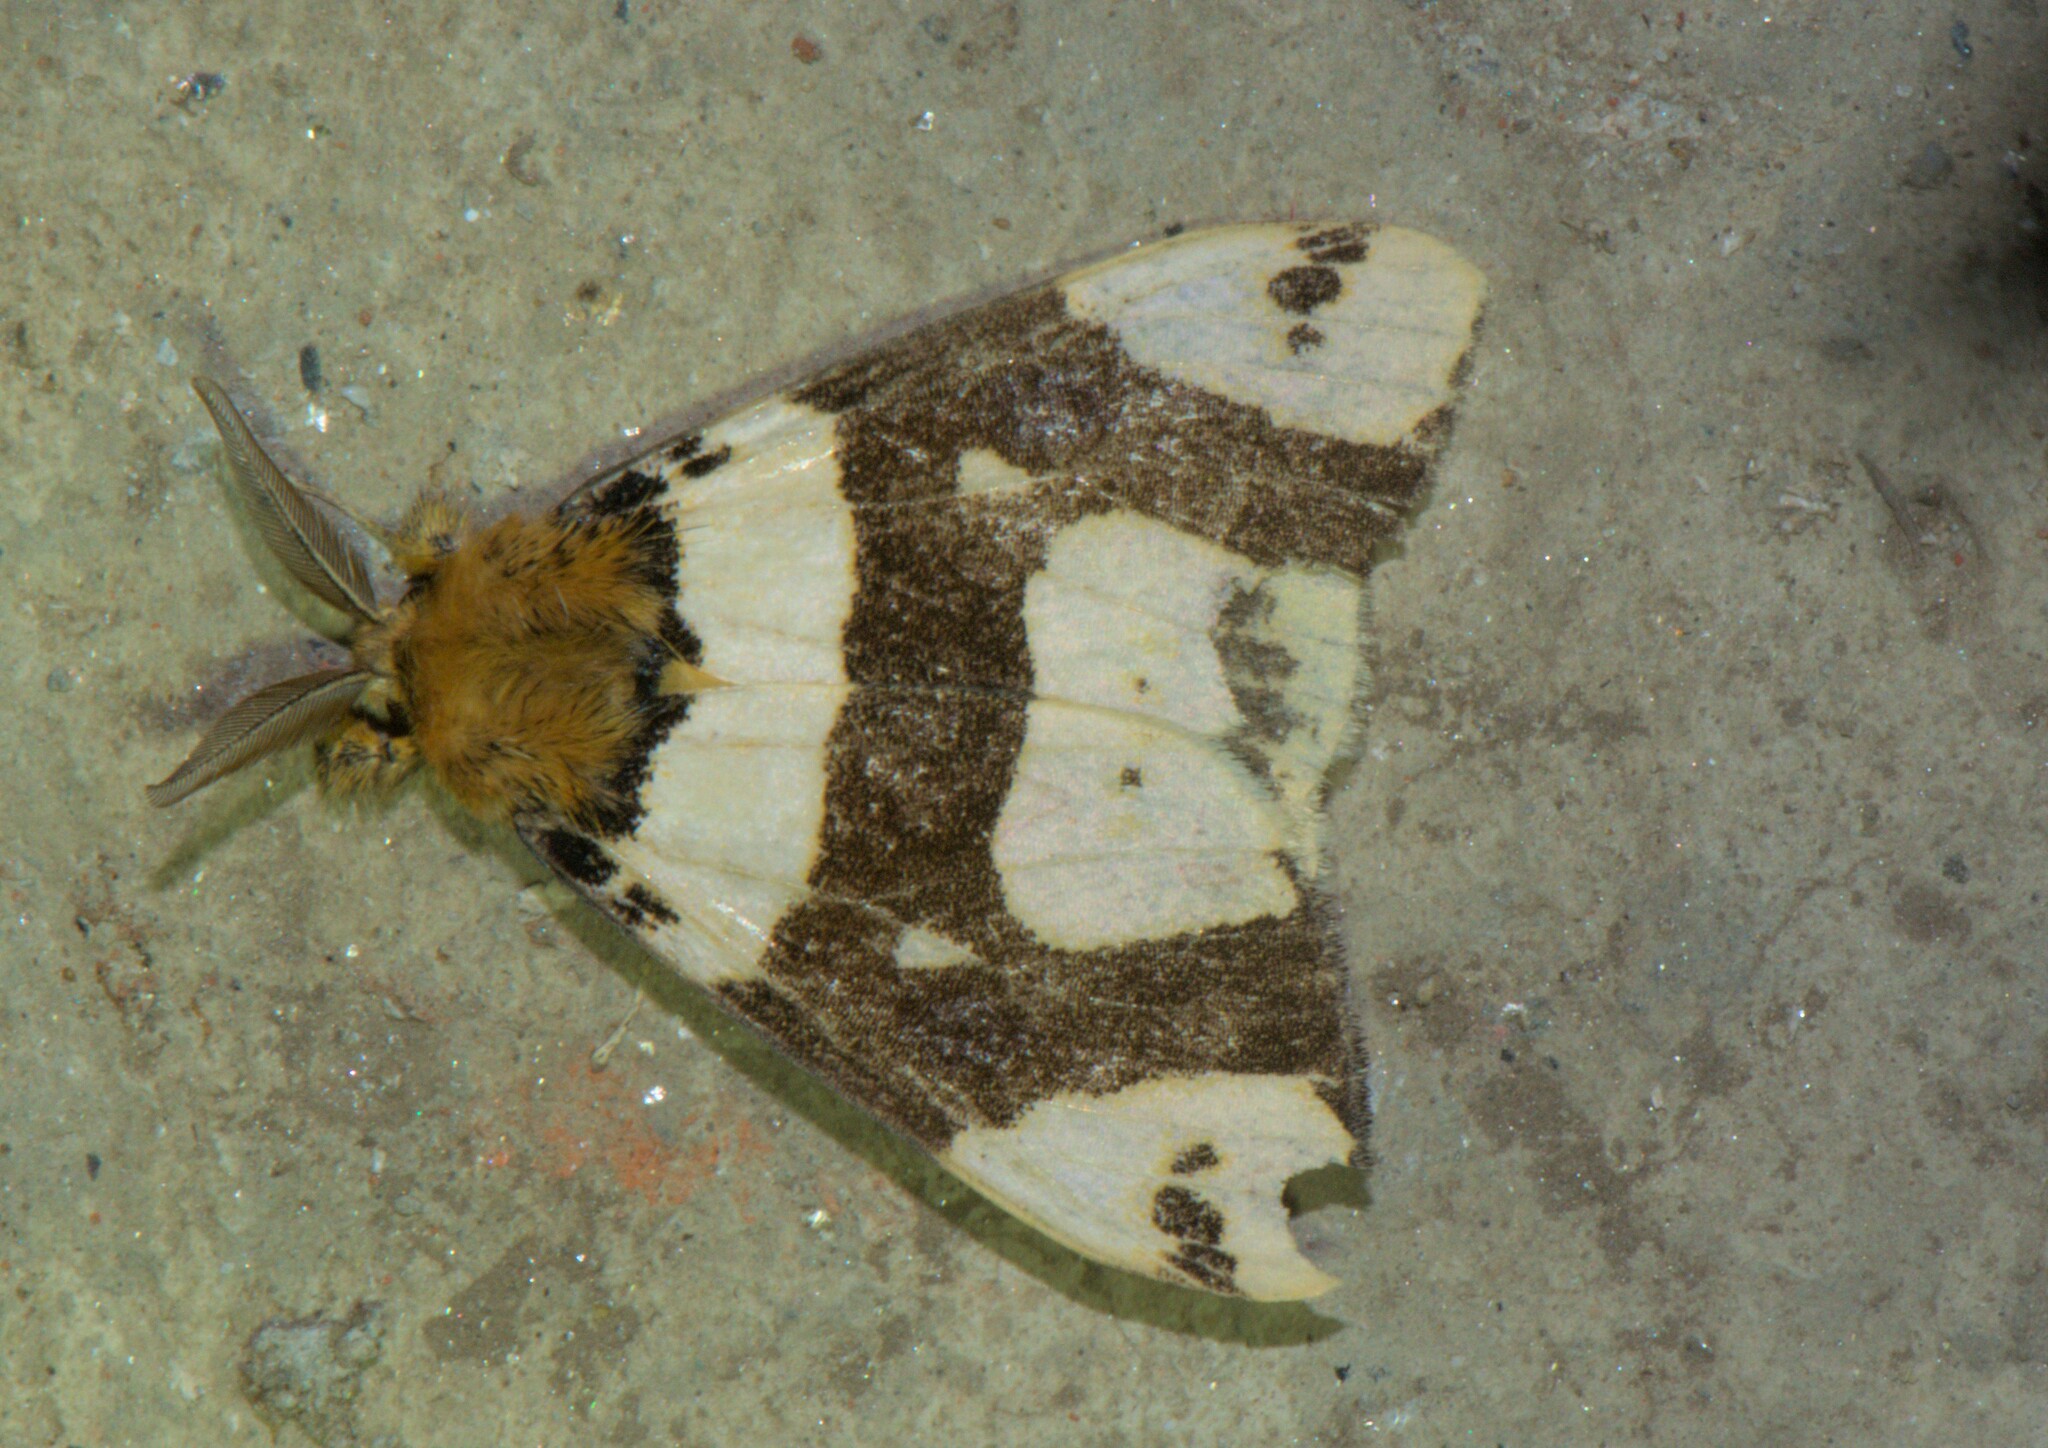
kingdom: Animalia
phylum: Arthropoda
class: Insecta
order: Lepidoptera
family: Erebidae
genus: Pida
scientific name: Pida
